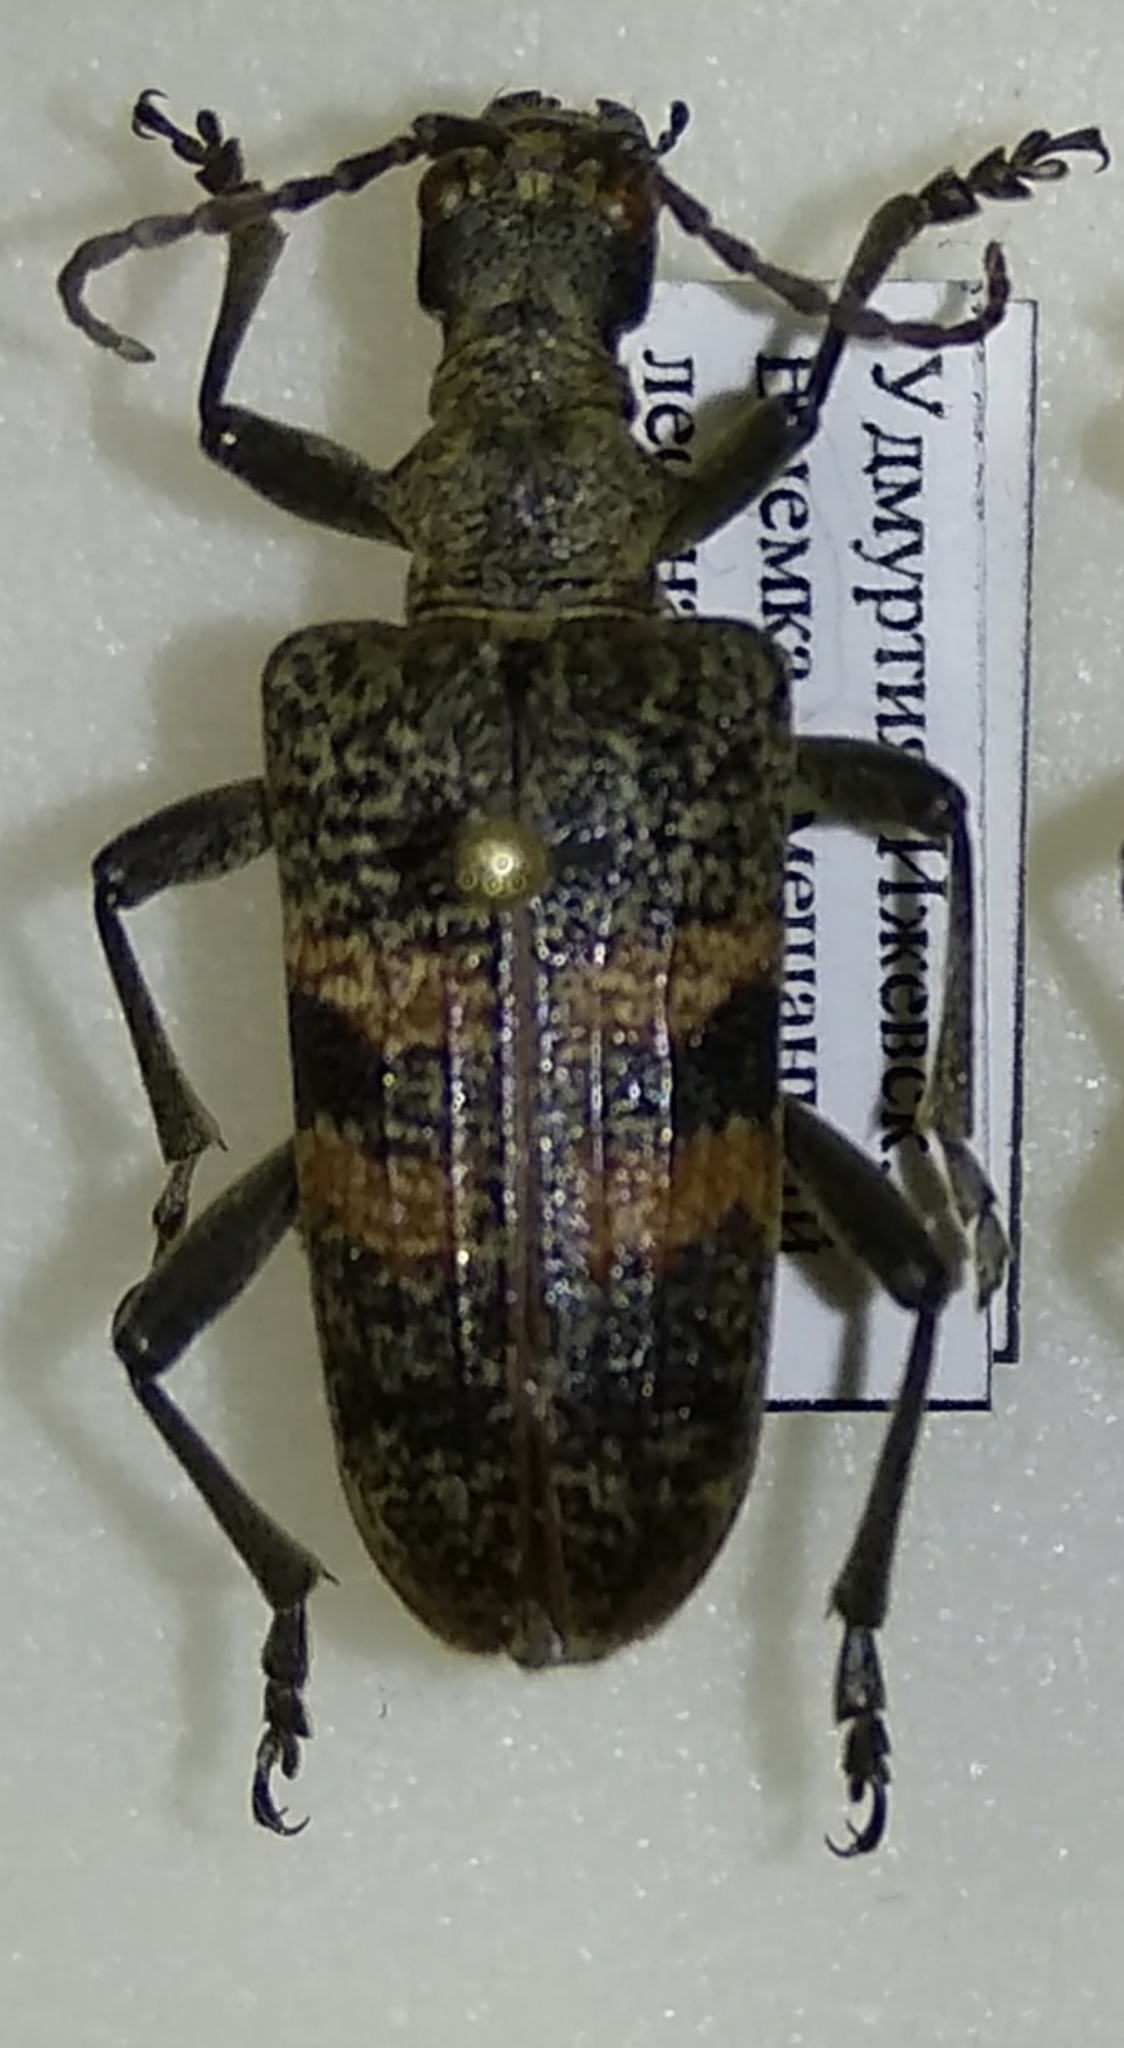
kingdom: Animalia
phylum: Arthropoda
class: Insecta
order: Coleoptera
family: Cerambycidae
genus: Rhagium
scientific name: Rhagium mordax
